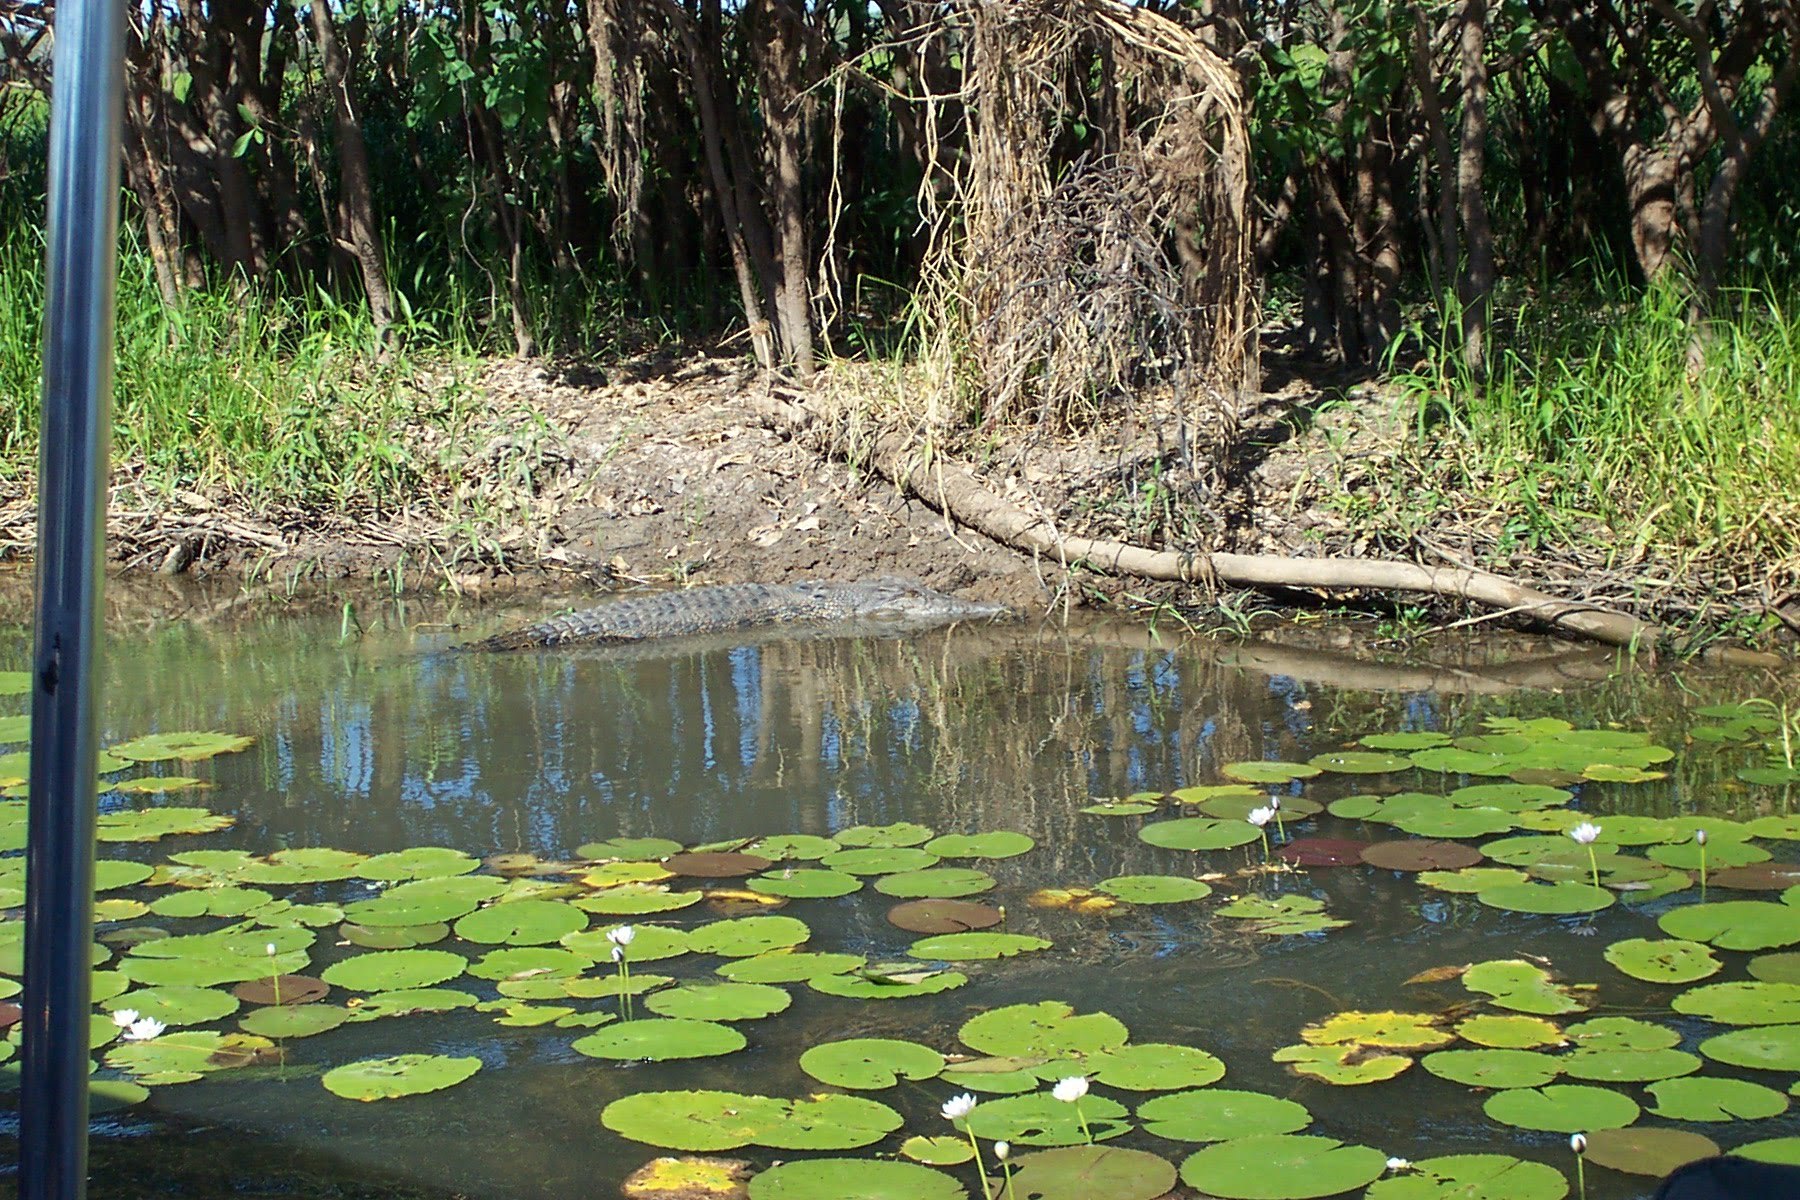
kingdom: Animalia
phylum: Chordata
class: Crocodylia
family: Crocodylidae
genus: Crocodylus
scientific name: Crocodylus porosus
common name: Saltwater crocodile
